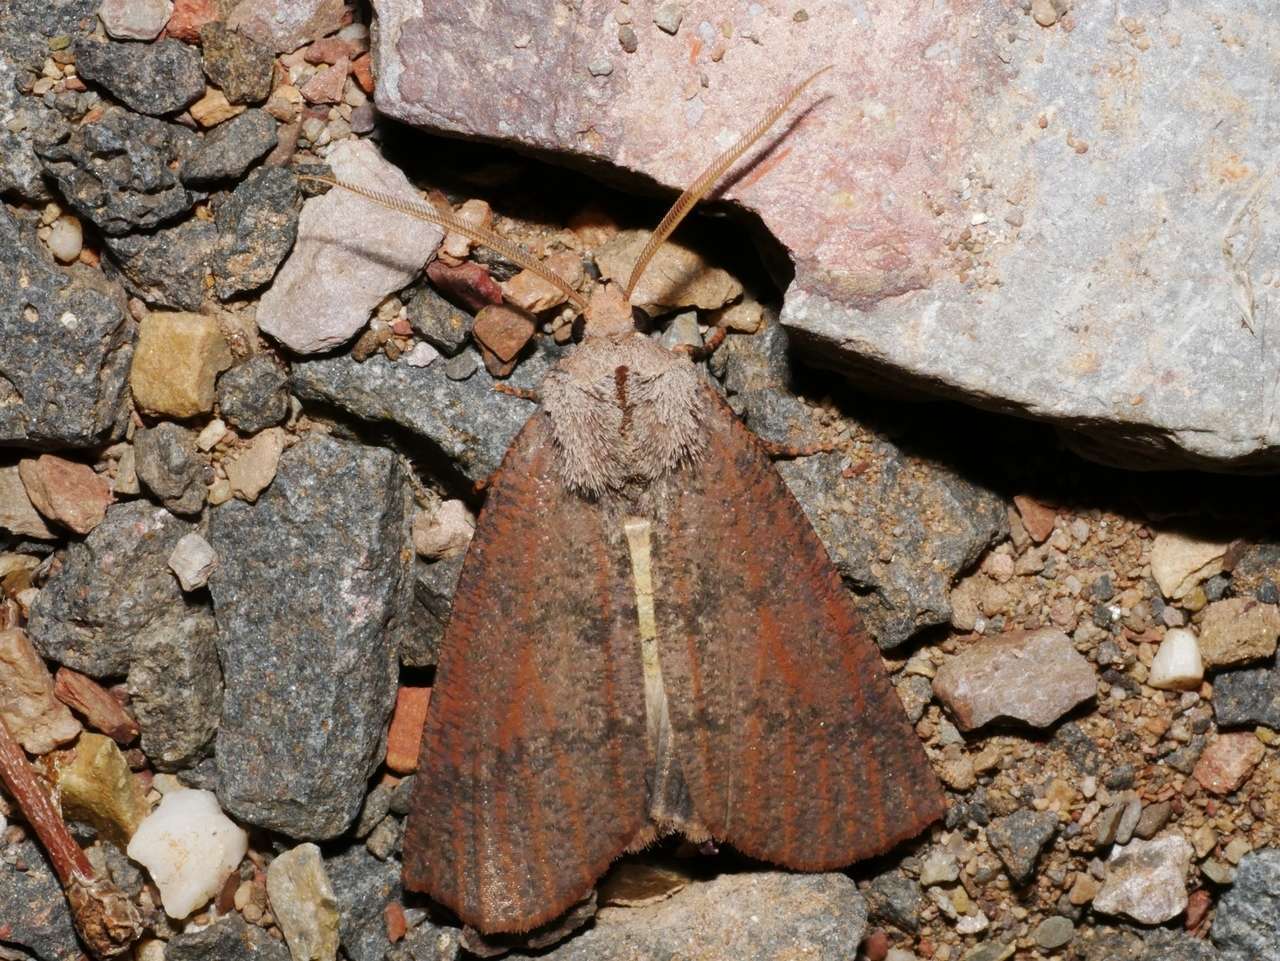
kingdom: Animalia
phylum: Arthropoda
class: Insecta
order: Lepidoptera
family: Geometridae
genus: Fisera
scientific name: Fisera eribola
